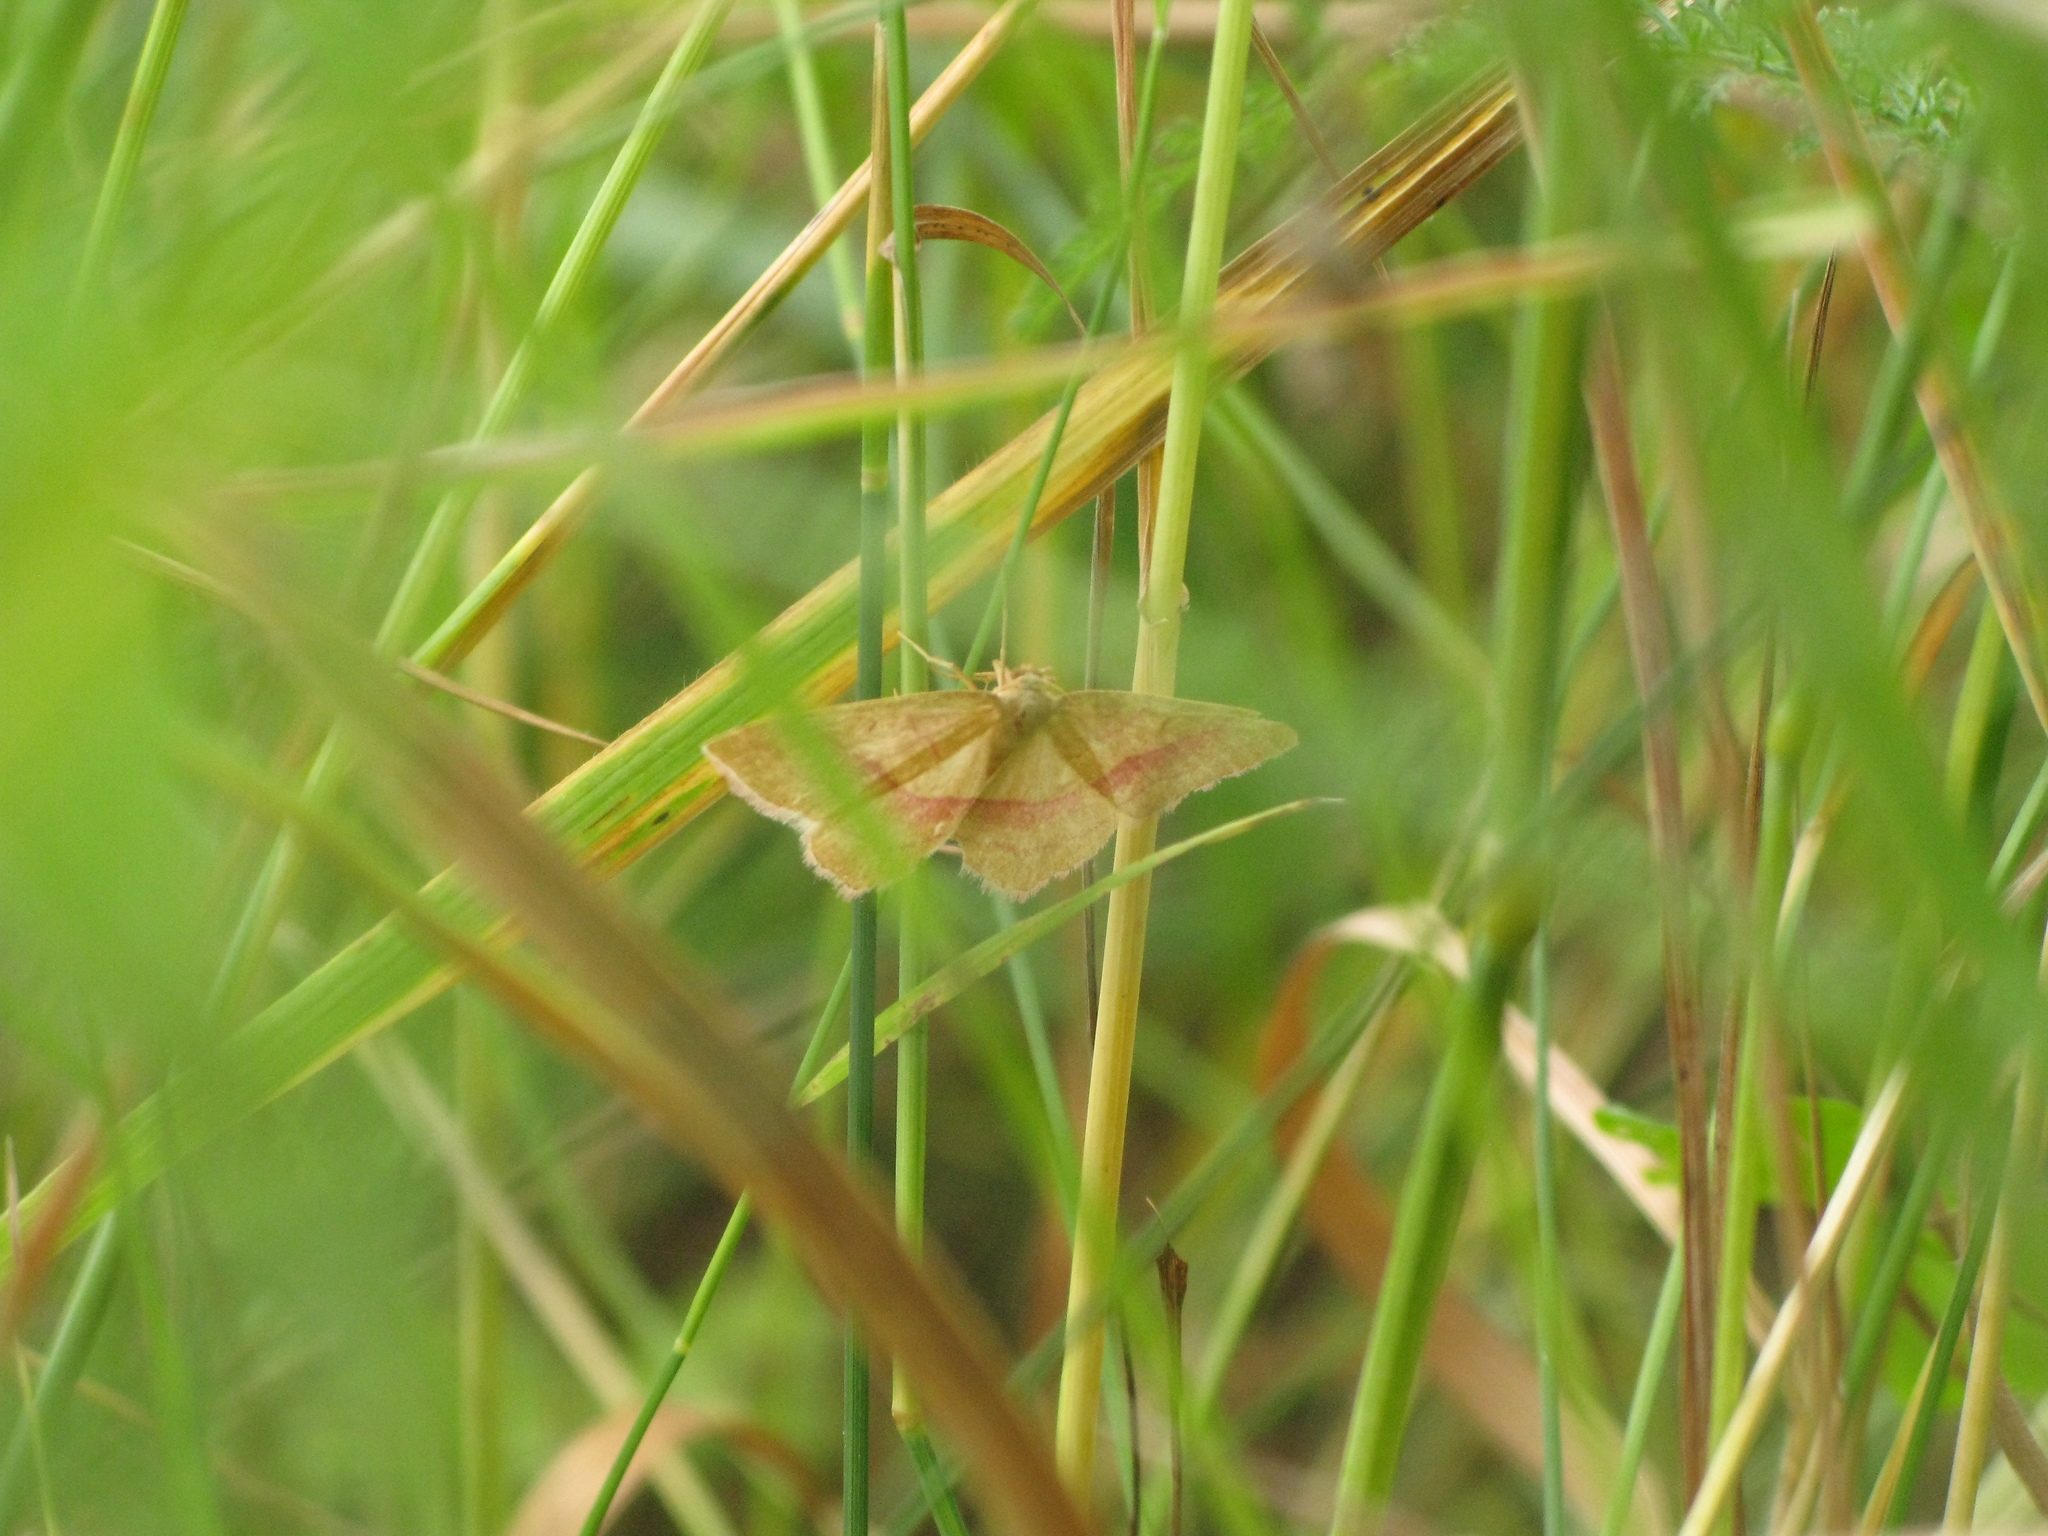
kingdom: Animalia
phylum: Arthropoda
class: Insecta
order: Lepidoptera
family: Geometridae
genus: Rhodostrophia
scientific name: Rhodostrophia vibicaria
